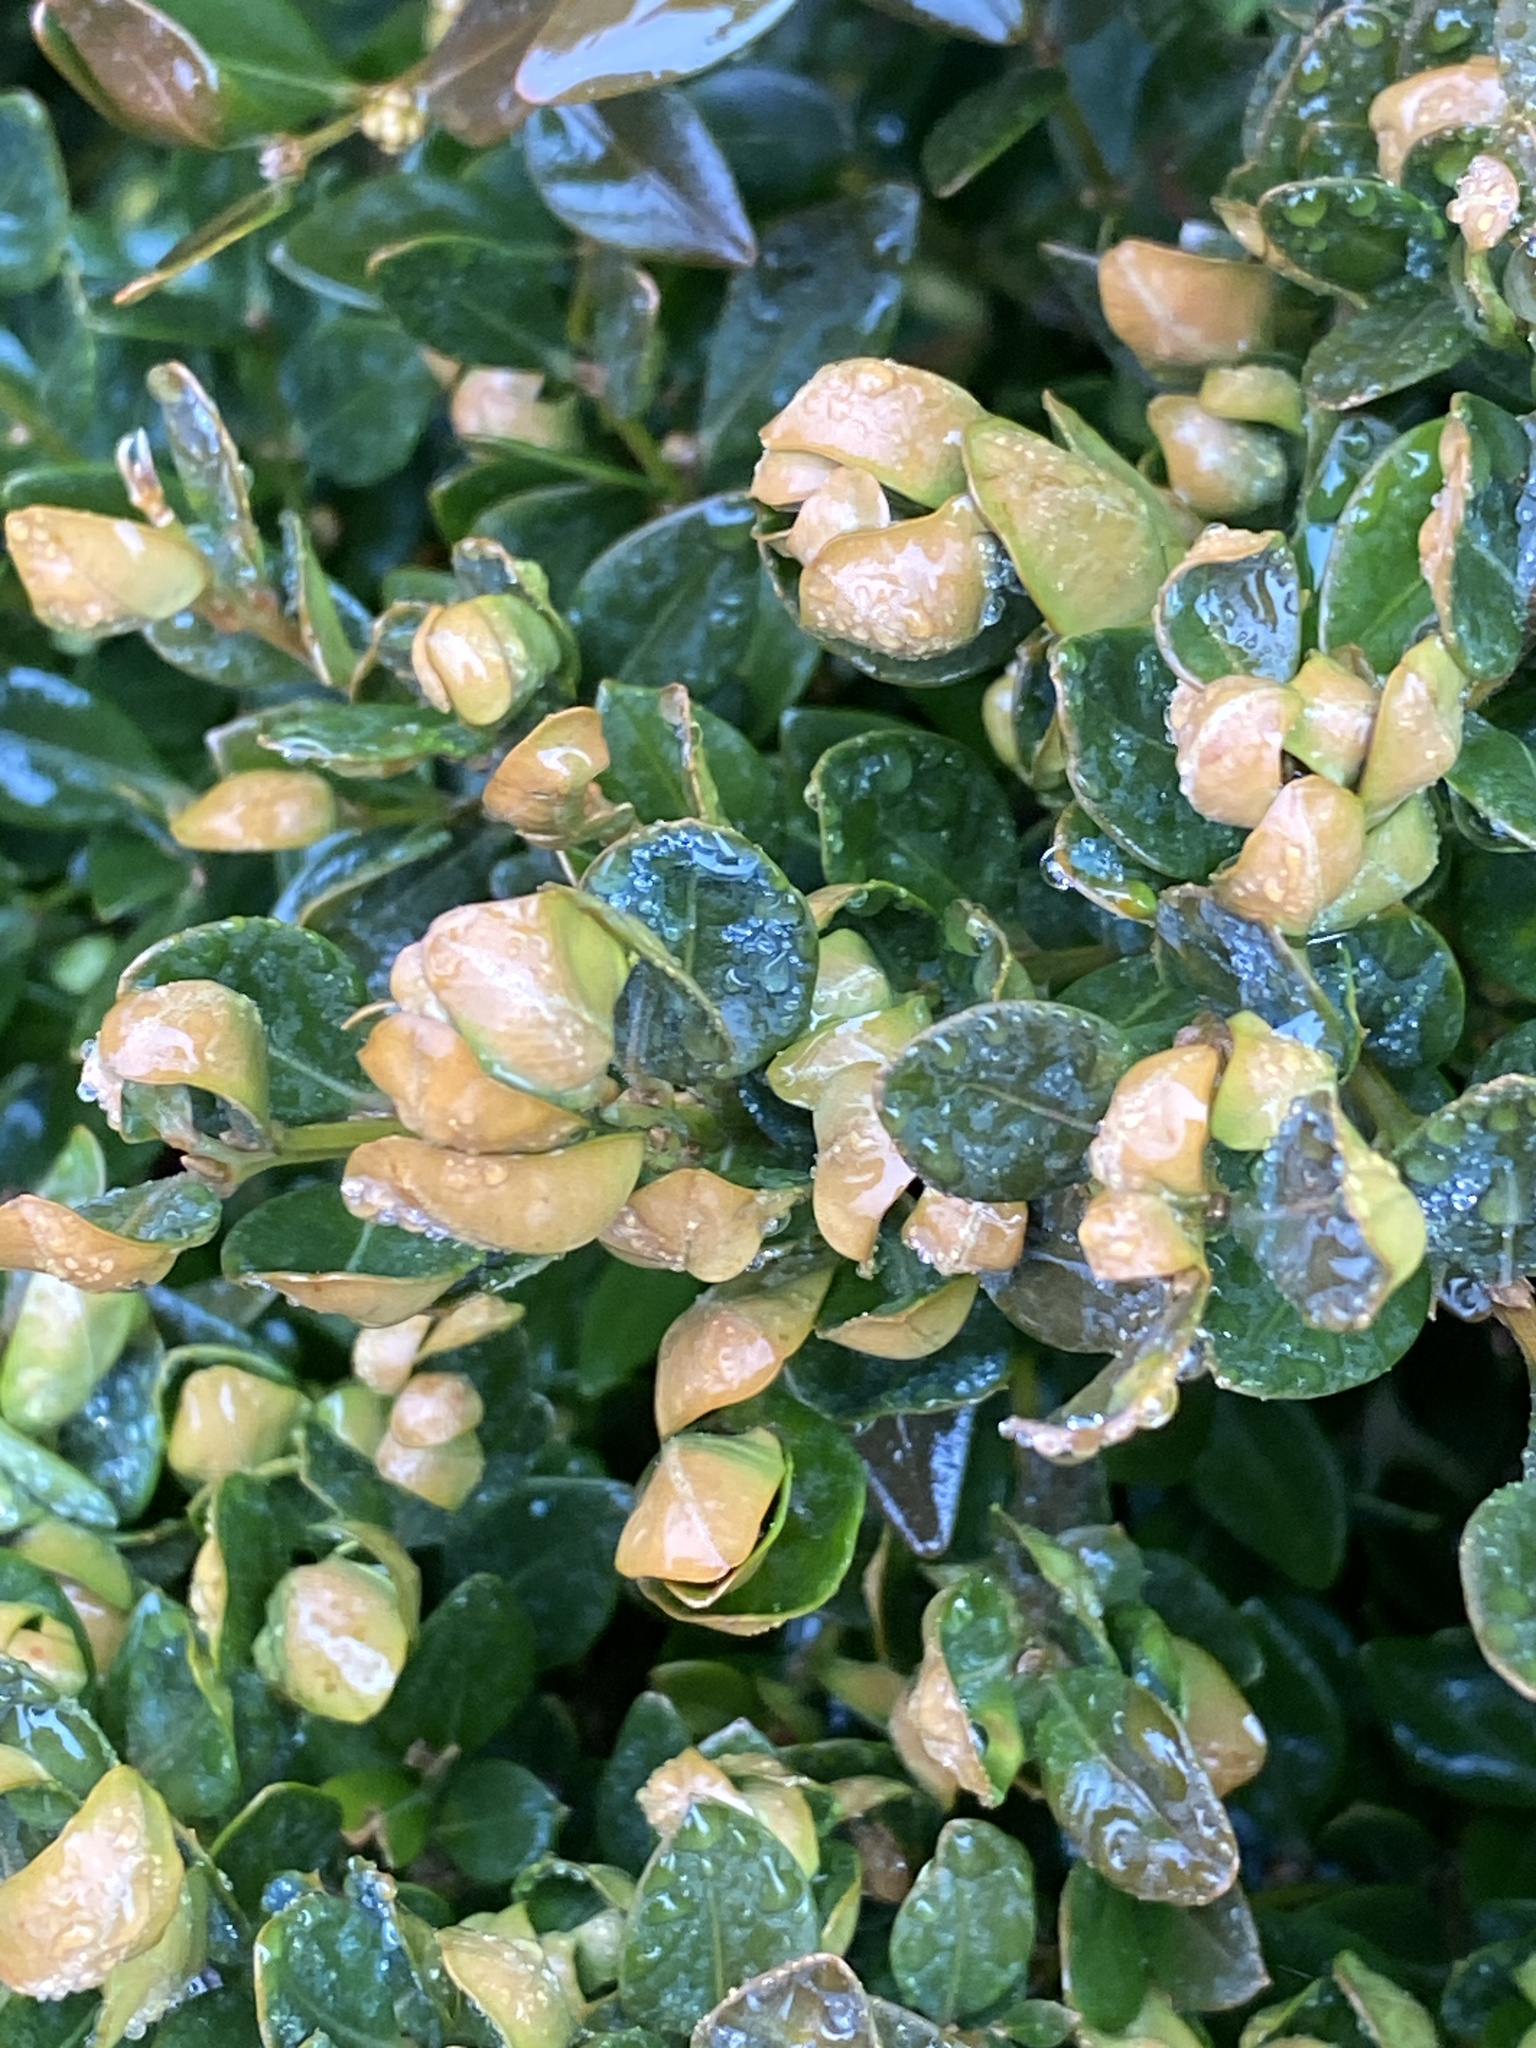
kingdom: Animalia
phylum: Arthropoda
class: Insecta
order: Hemiptera
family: Psyllidae
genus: Psylla
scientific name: Psylla buxi
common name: Boxwood psyllid
